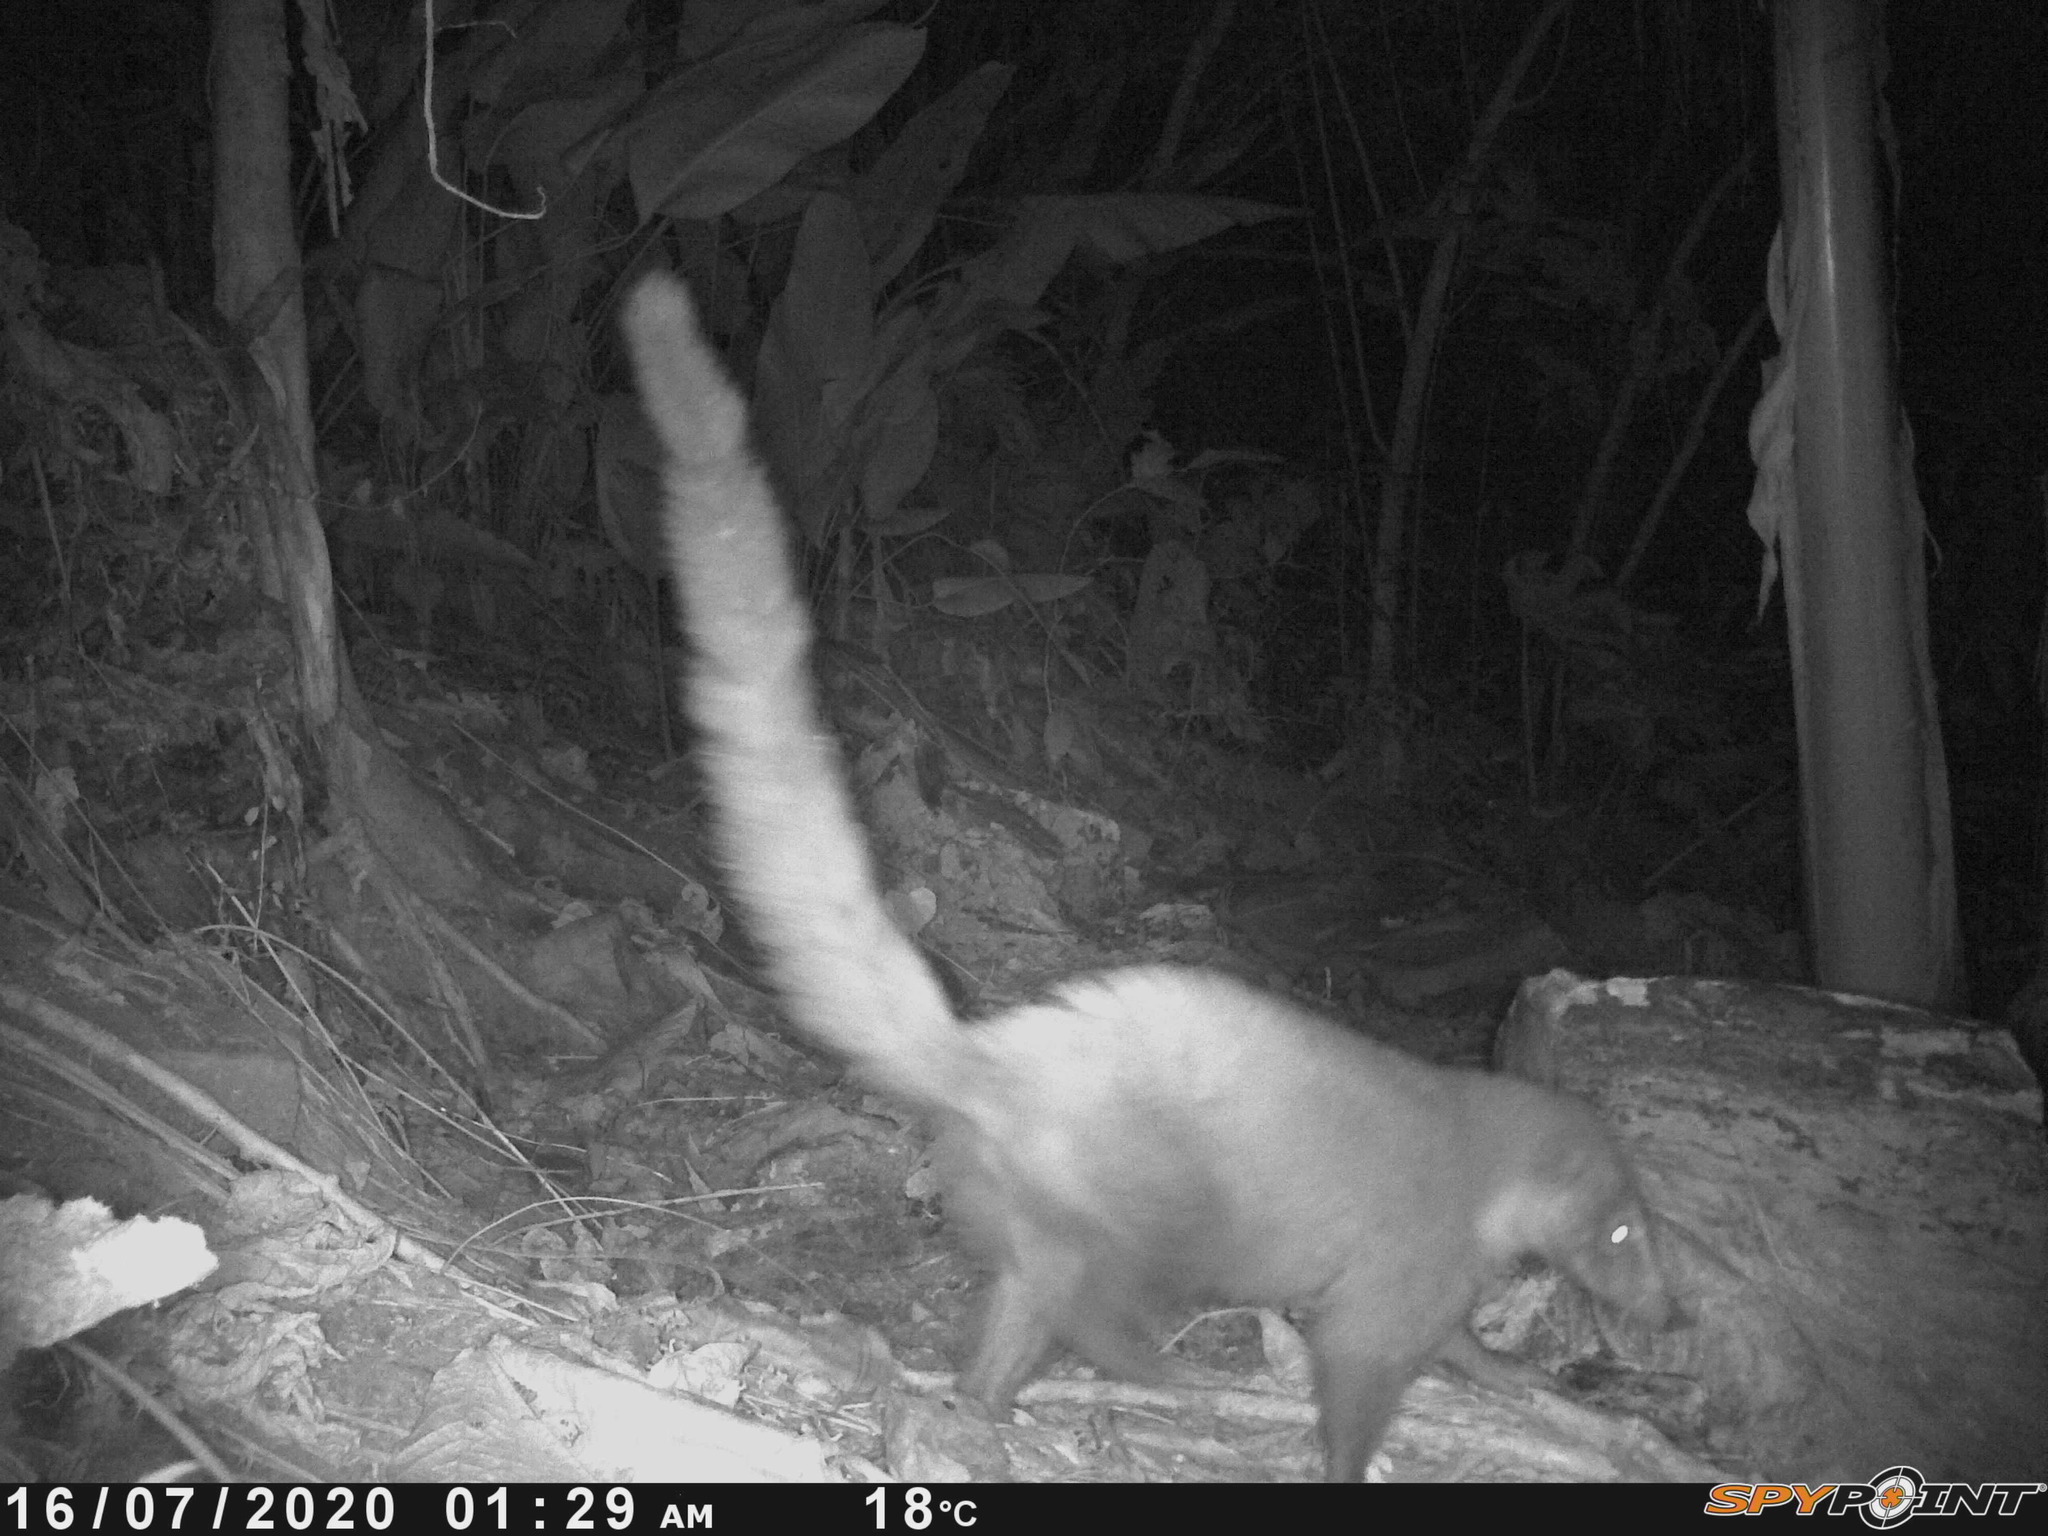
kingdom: Animalia
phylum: Chordata
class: Mammalia
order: Carnivora
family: Procyonidae
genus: Nasua
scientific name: Nasua narica
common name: White-nosed coati
